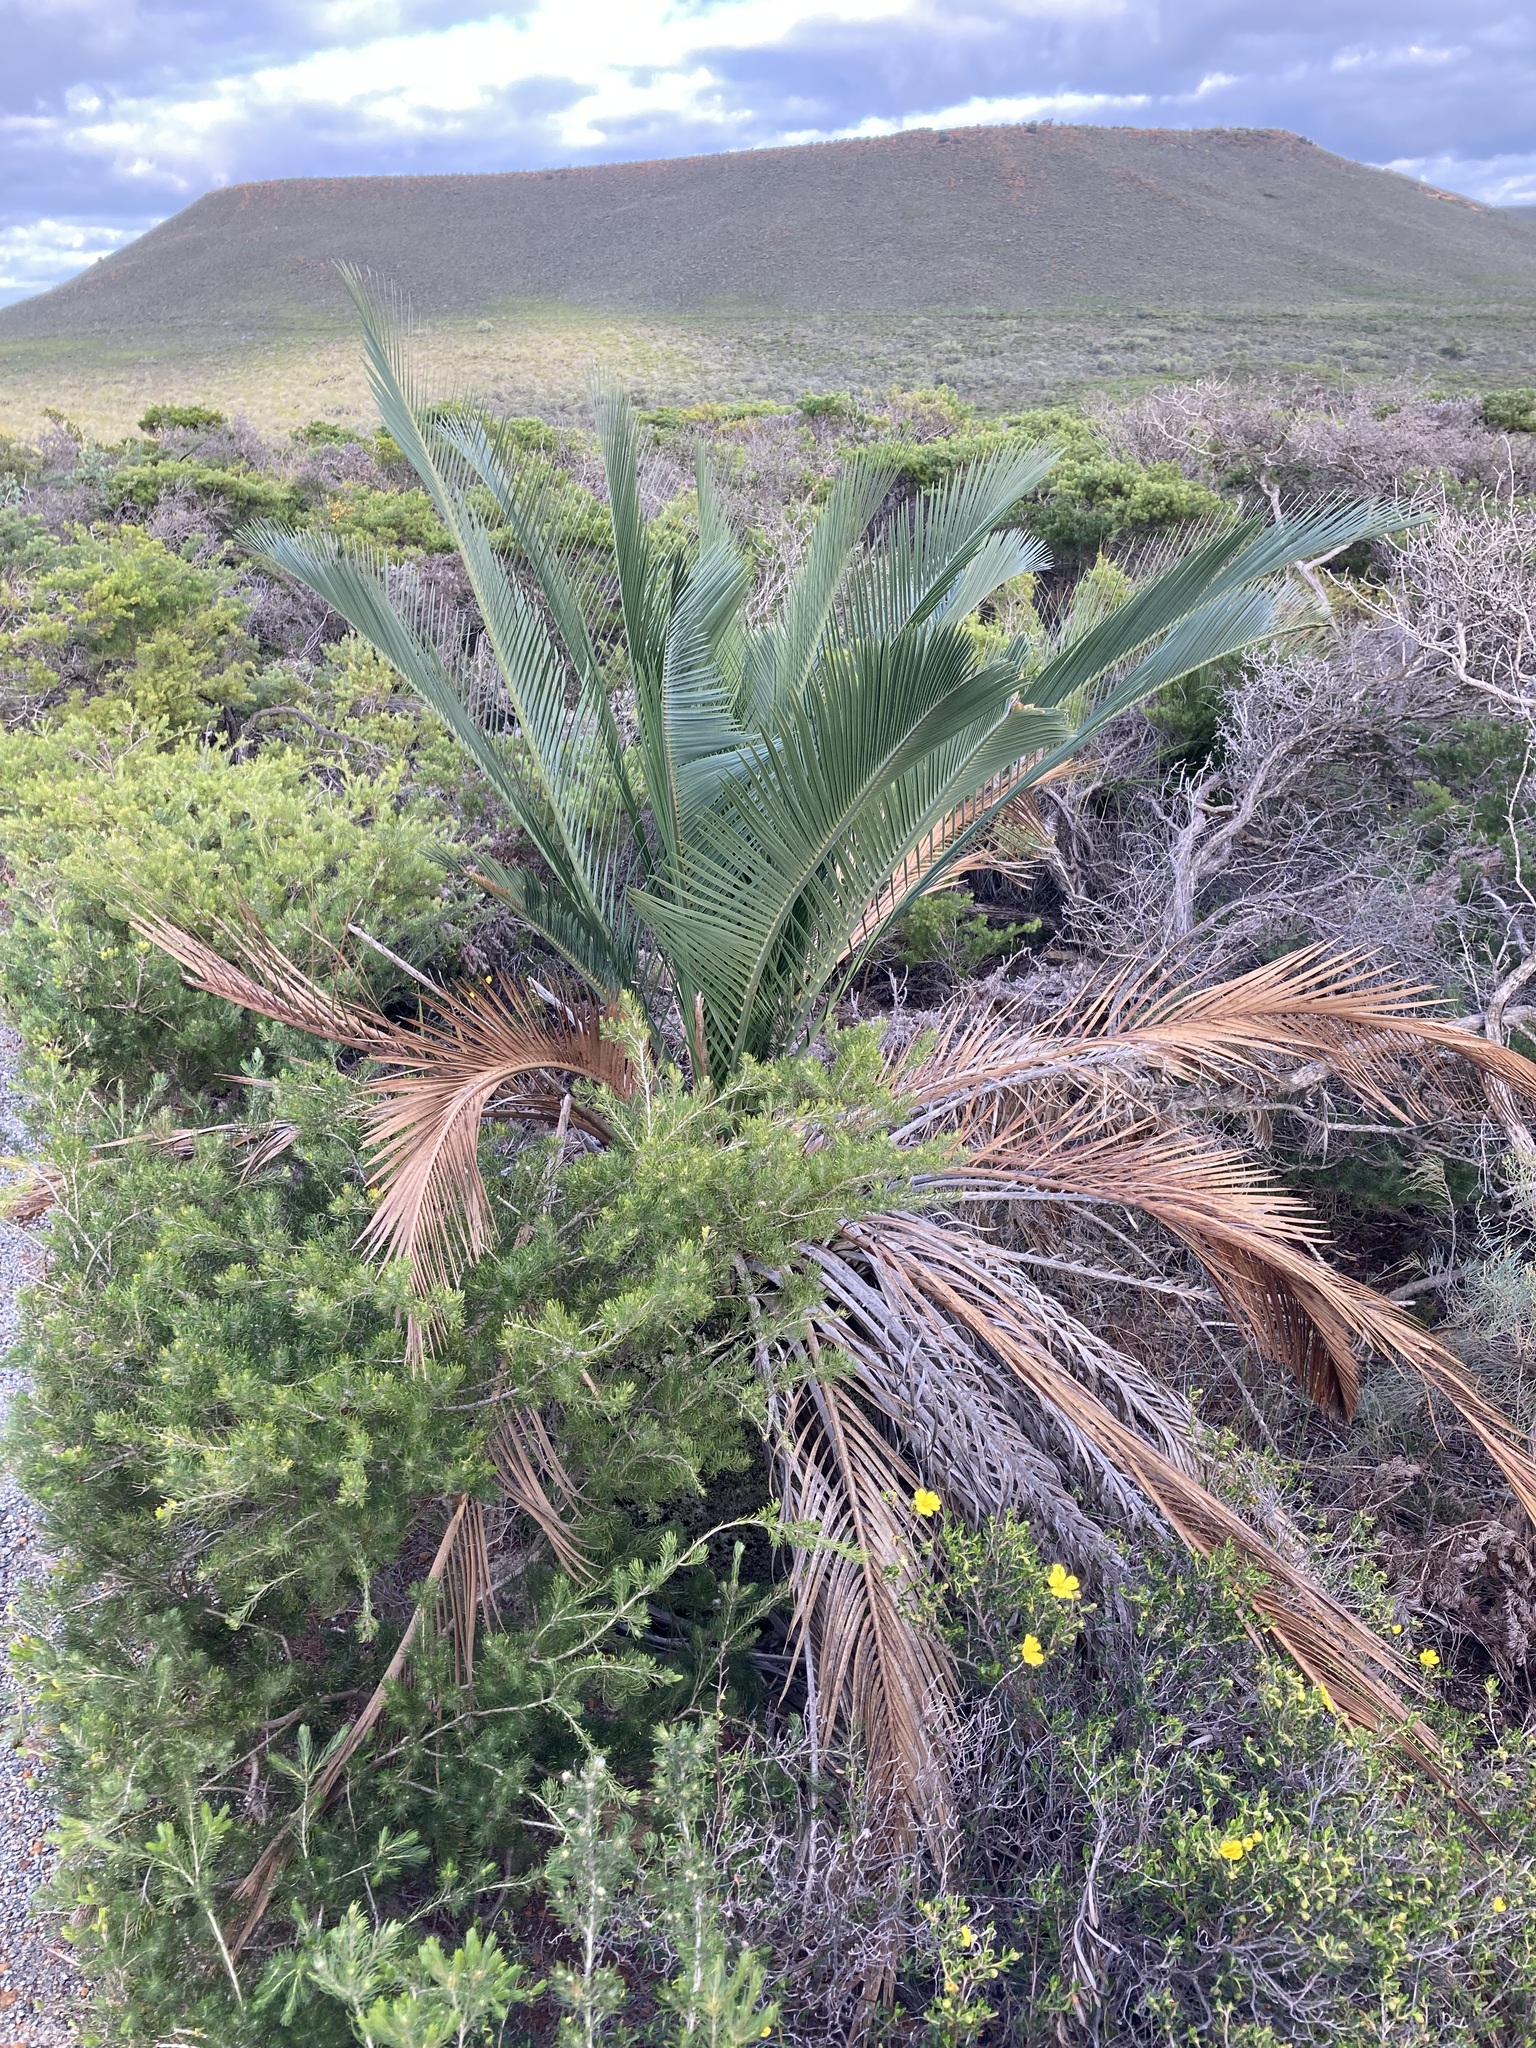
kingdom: Plantae
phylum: Tracheophyta
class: Cycadopsida
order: Cycadales
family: Zamiaceae
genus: Macrozamia
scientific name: Macrozamia fraseri
